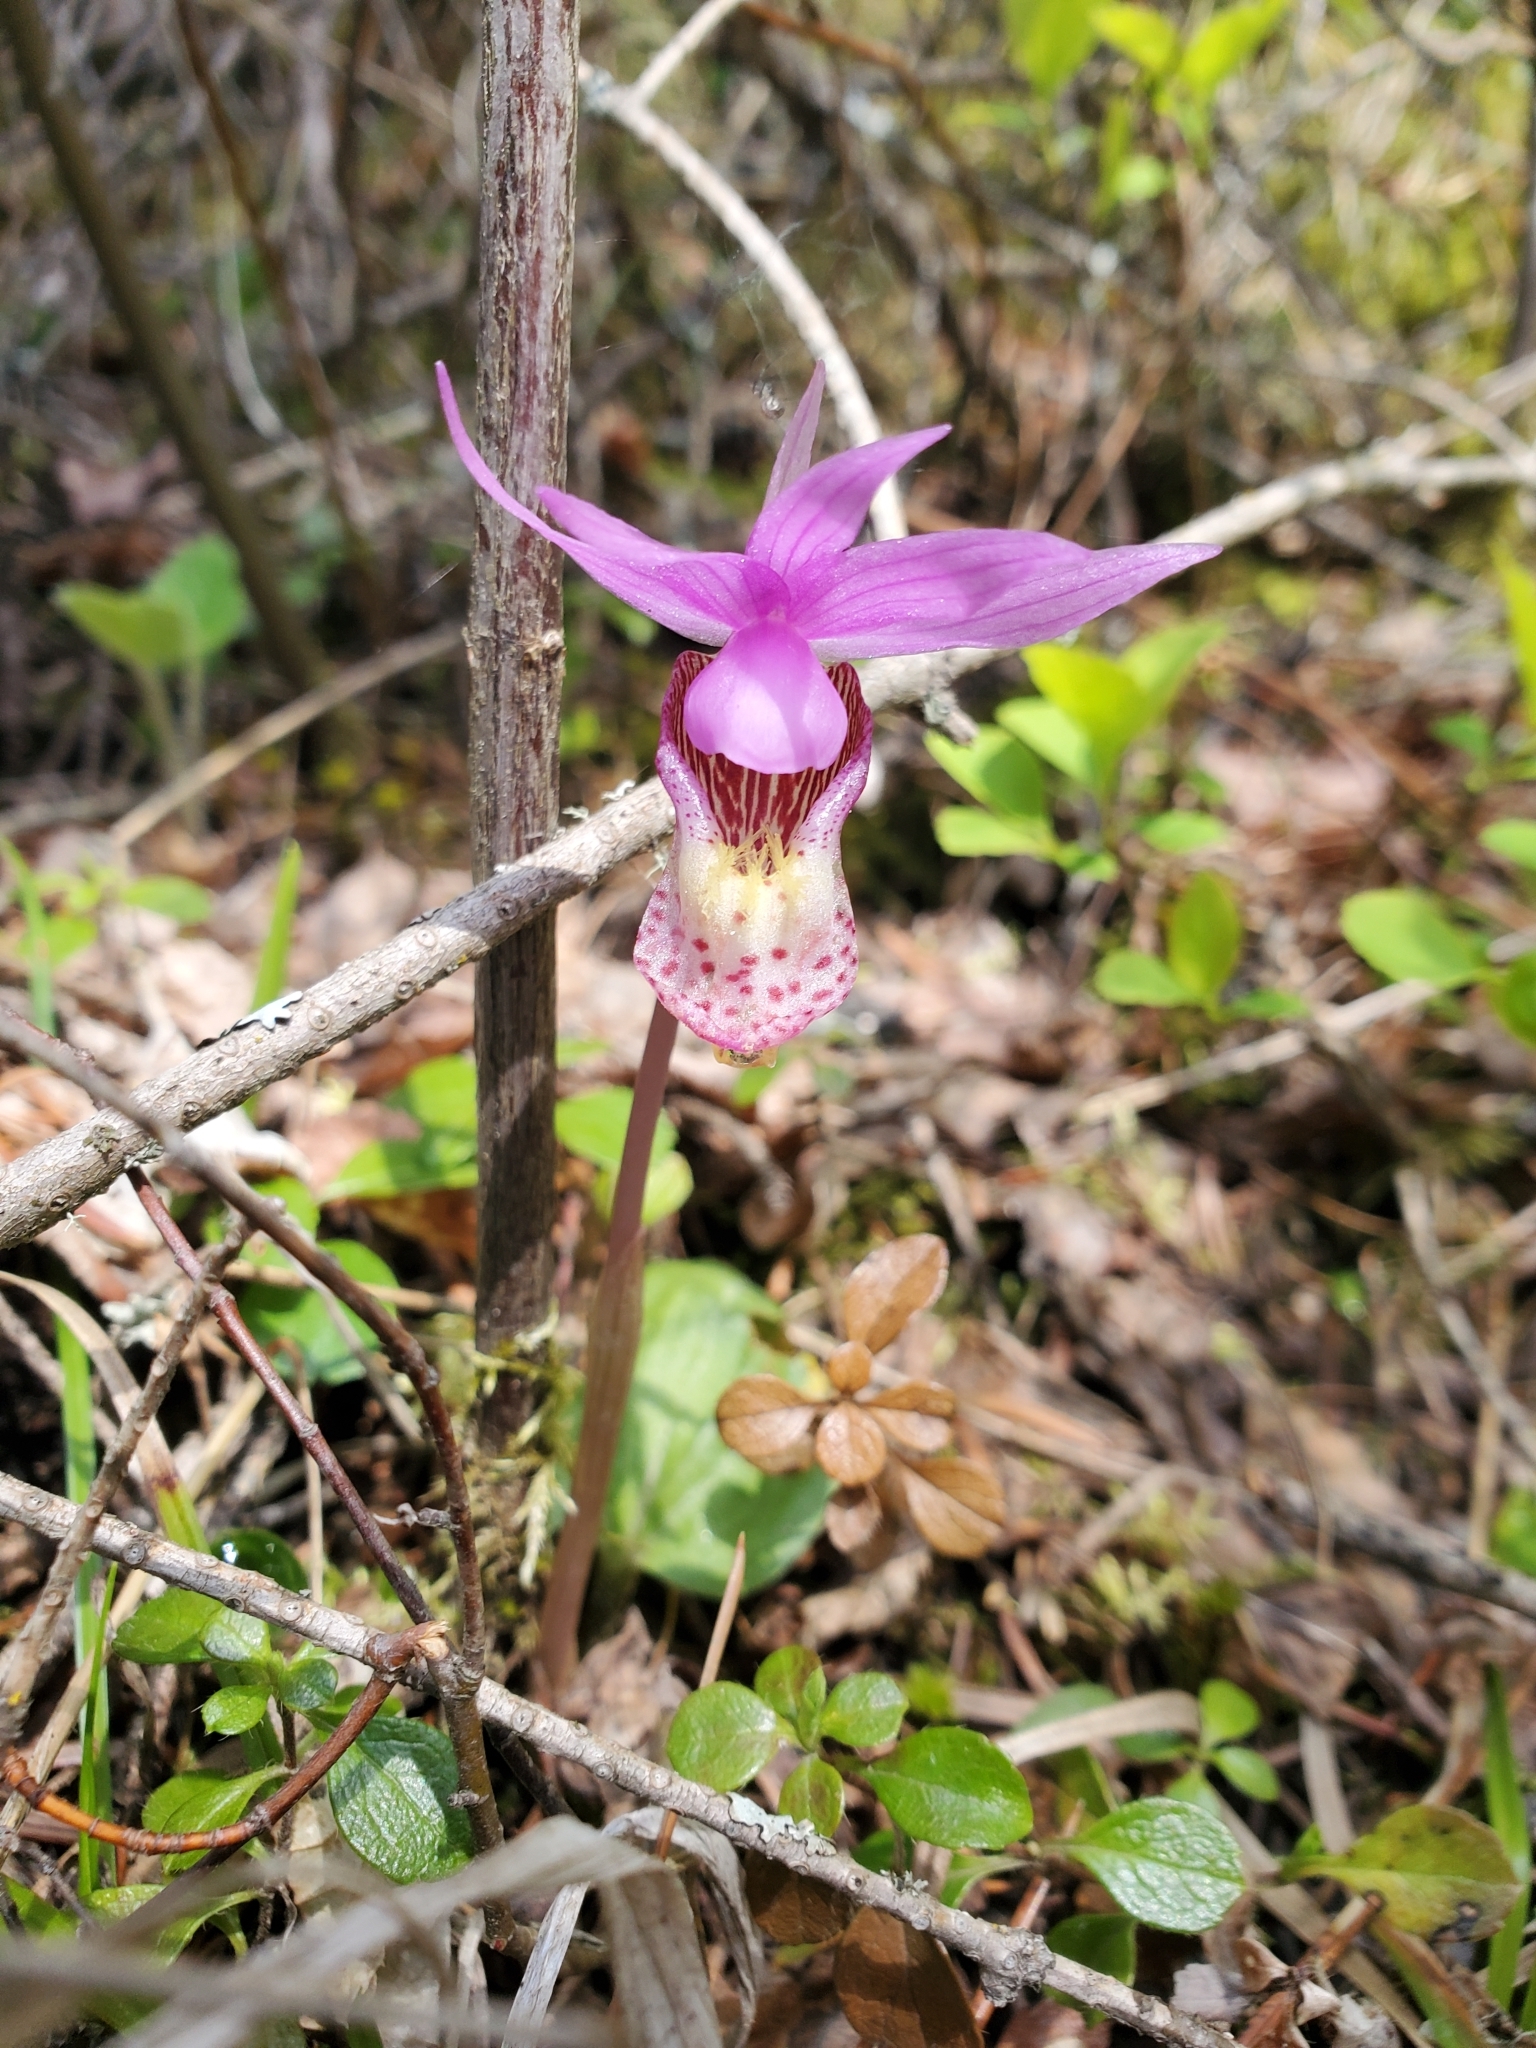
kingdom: Plantae
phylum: Tracheophyta
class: Liliopsida
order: Asparagales
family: Orchidaceae
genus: Calypso
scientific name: Calypso bulbosa
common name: Calypso
